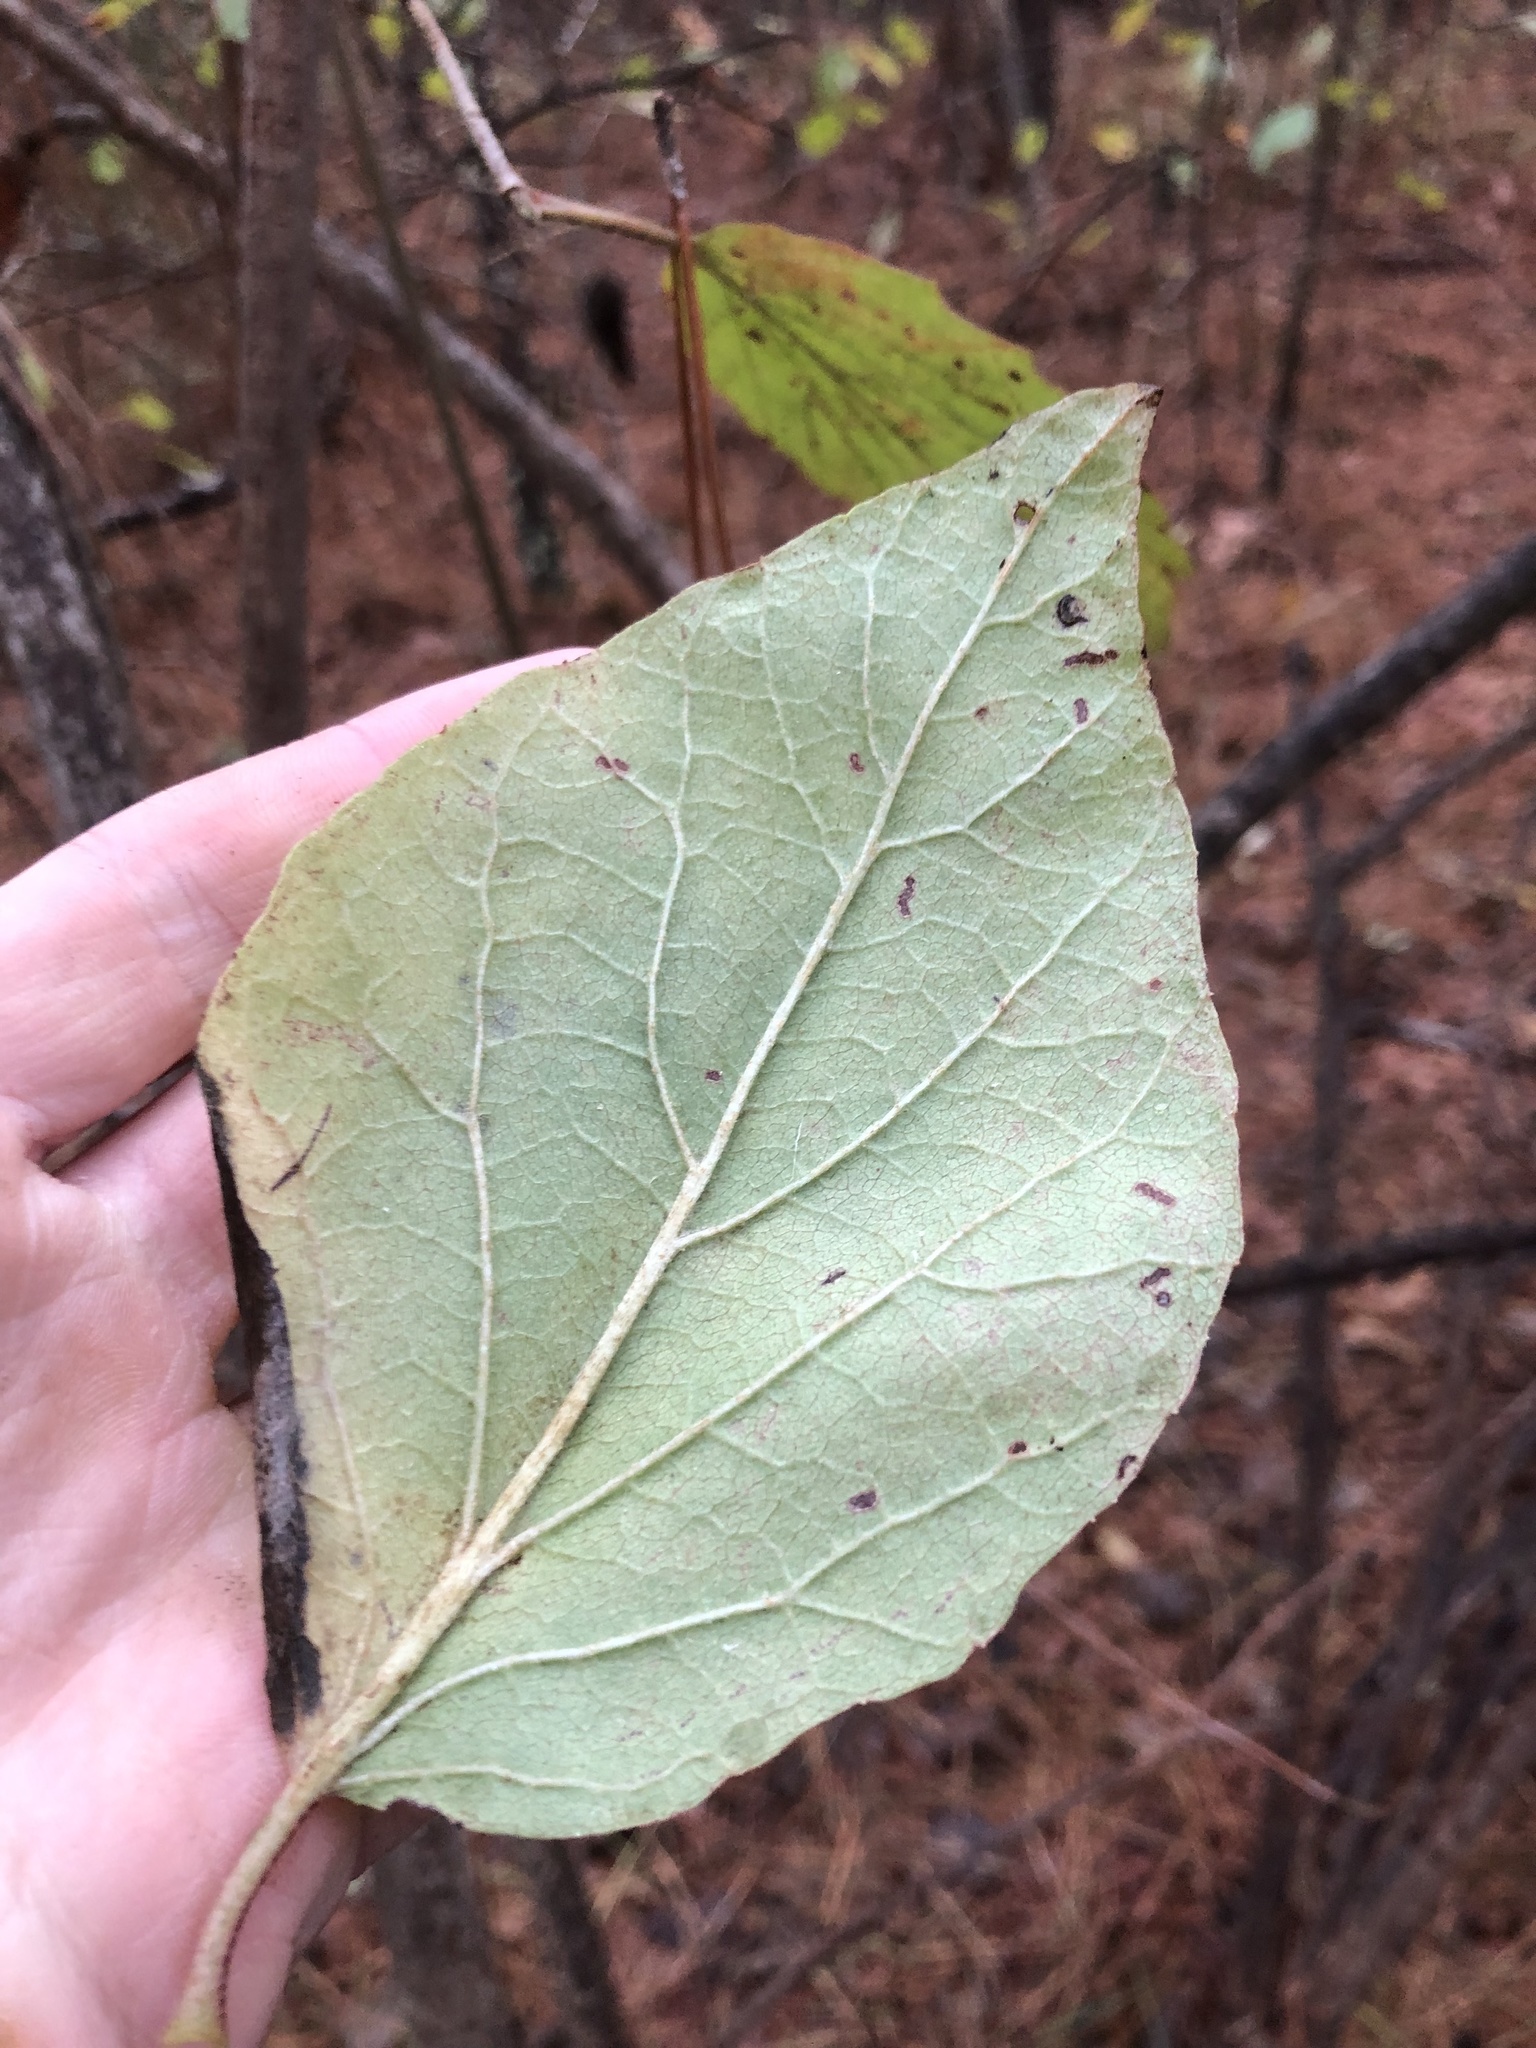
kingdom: Plantae
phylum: Tracheophyta
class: Magnoliopsida
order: Dipsacales
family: Viburnaceae
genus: Viburnum
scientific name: Viburnum scabrellum
